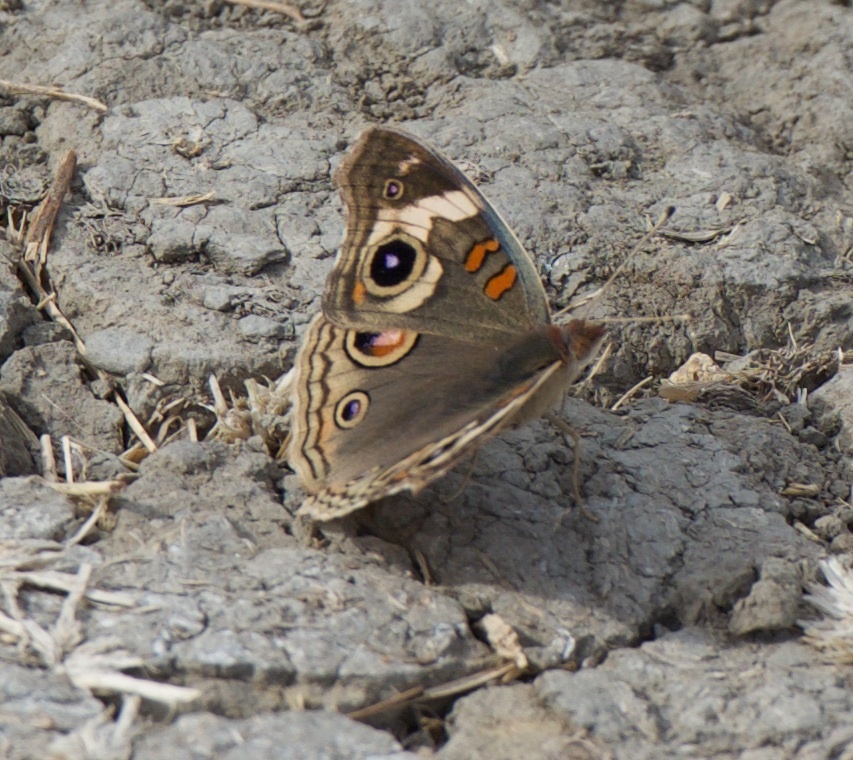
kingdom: Animalia
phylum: Arthropoda
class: Insecta
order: Lepidoptera
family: Nymphalidae
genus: Junonia
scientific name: Junonia grisea
